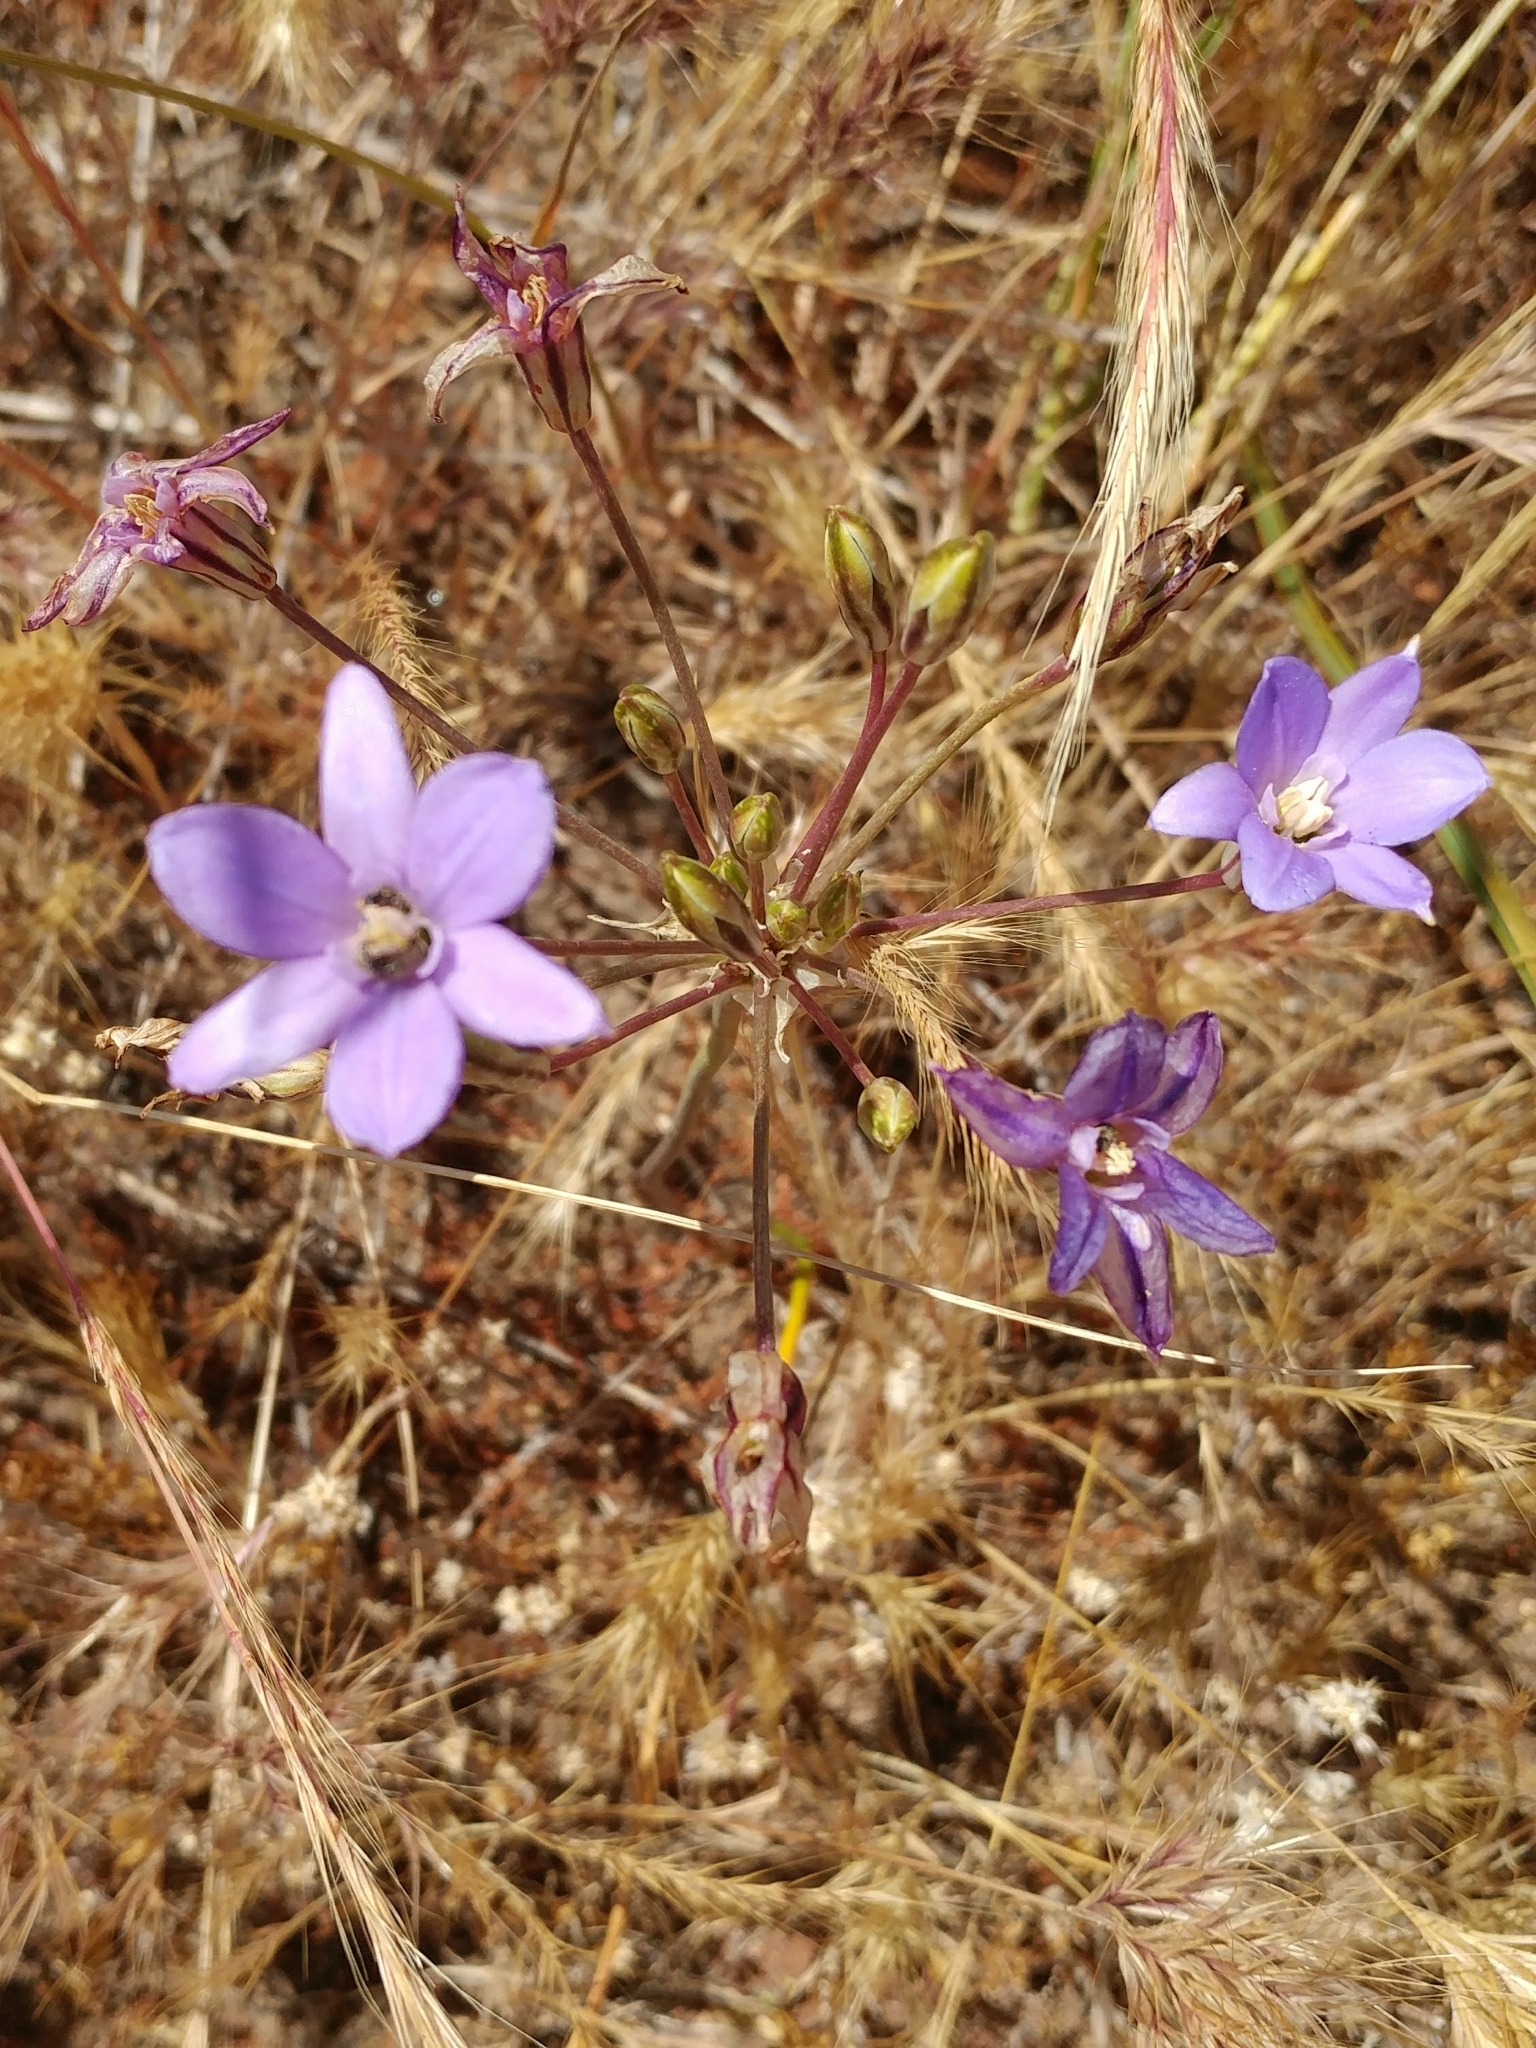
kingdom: Plantae
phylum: Tracheophyta
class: Liliopsida
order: Asparagales
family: Asparagaceae
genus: Brodiaea
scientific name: Brodiaea kinkiensis
